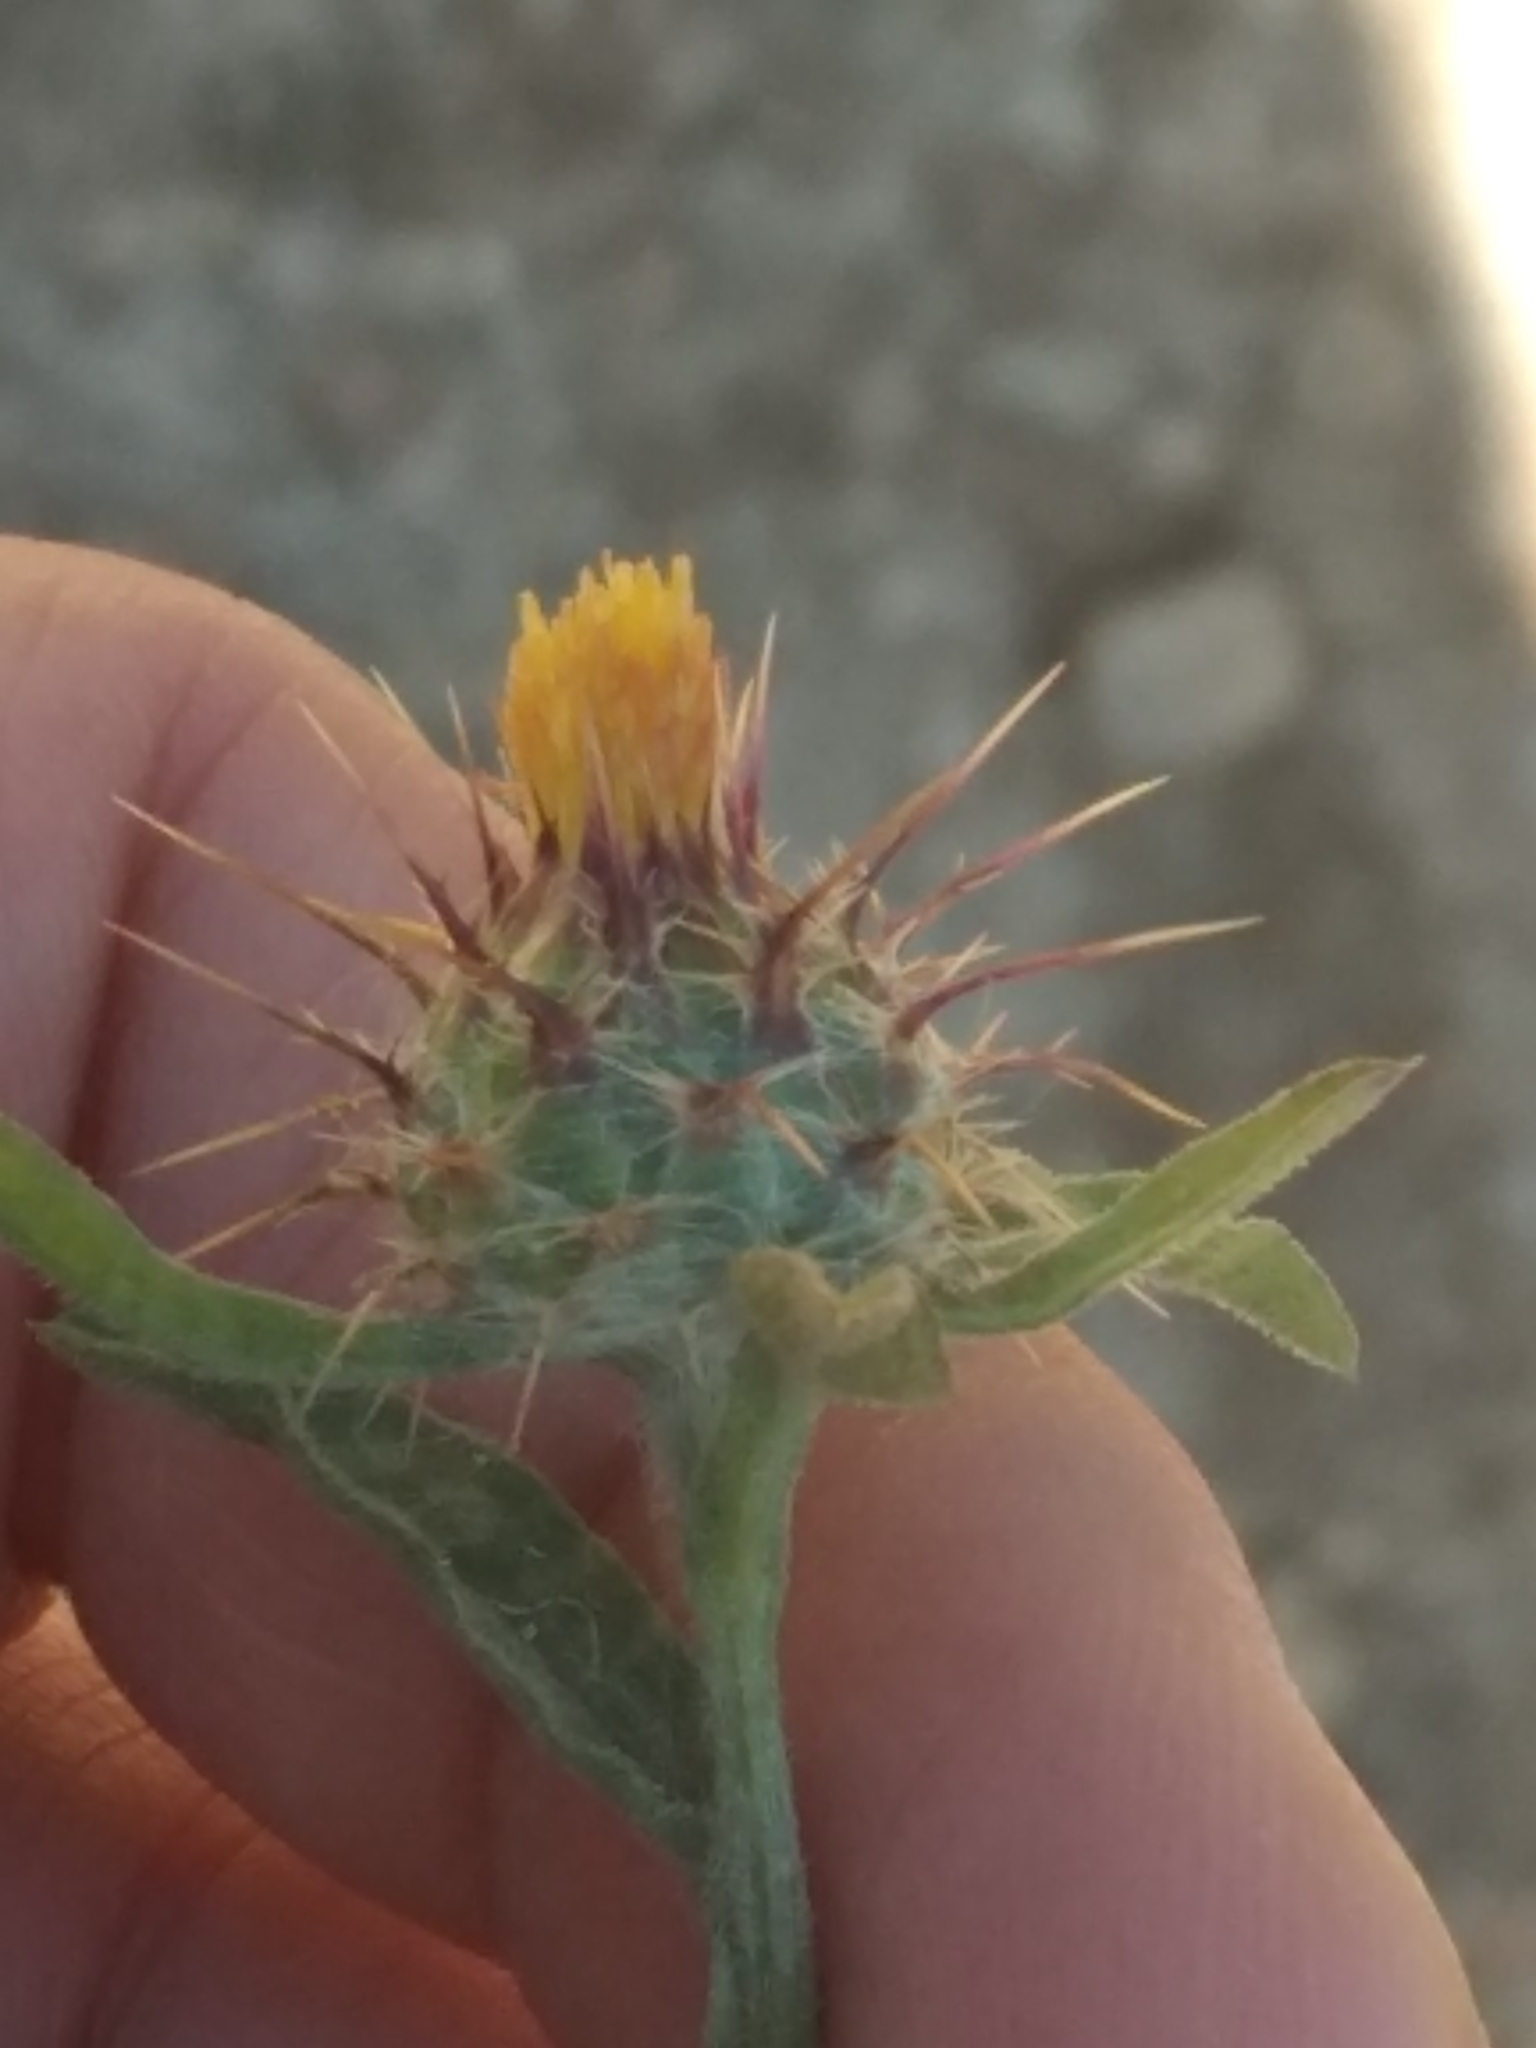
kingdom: Plantae
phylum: Tracheophyta
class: Magnoliopsida
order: Asterales
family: Asteraceae
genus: Centaurea
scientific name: Centaurea melitensis
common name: Maltese star-thistle
